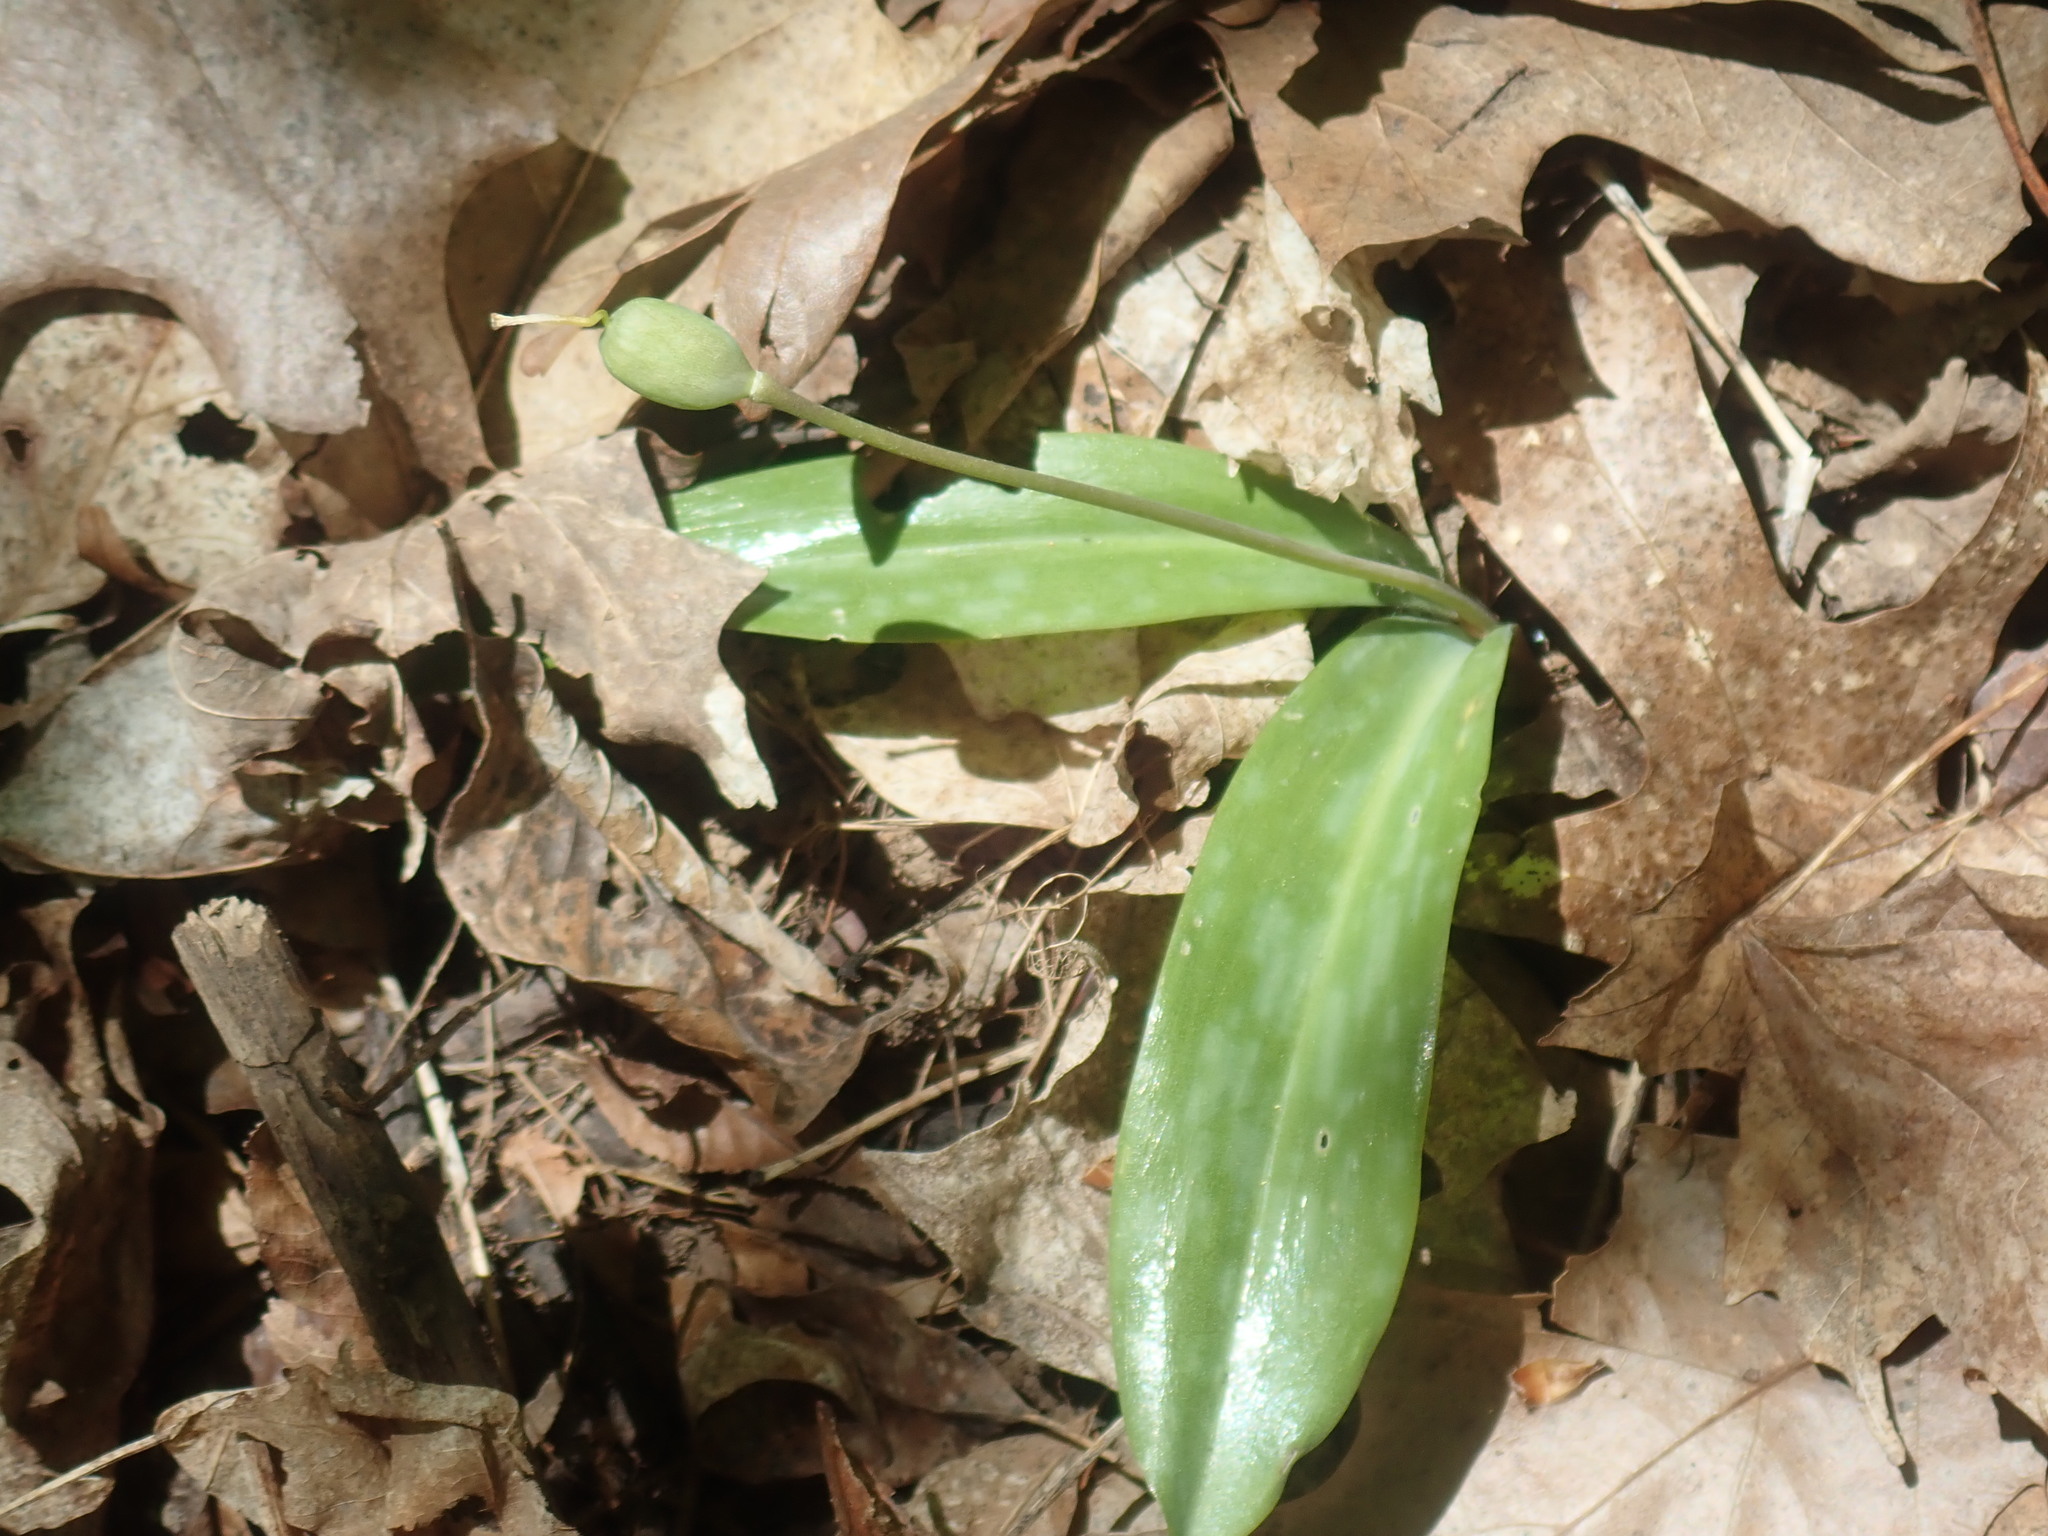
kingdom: Plantae
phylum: Tracheophyta
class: Liliopsida
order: Liliales
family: Liliaceae
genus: Erythronium
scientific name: Erythronium americanum
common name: Yellow adder's-tongue
